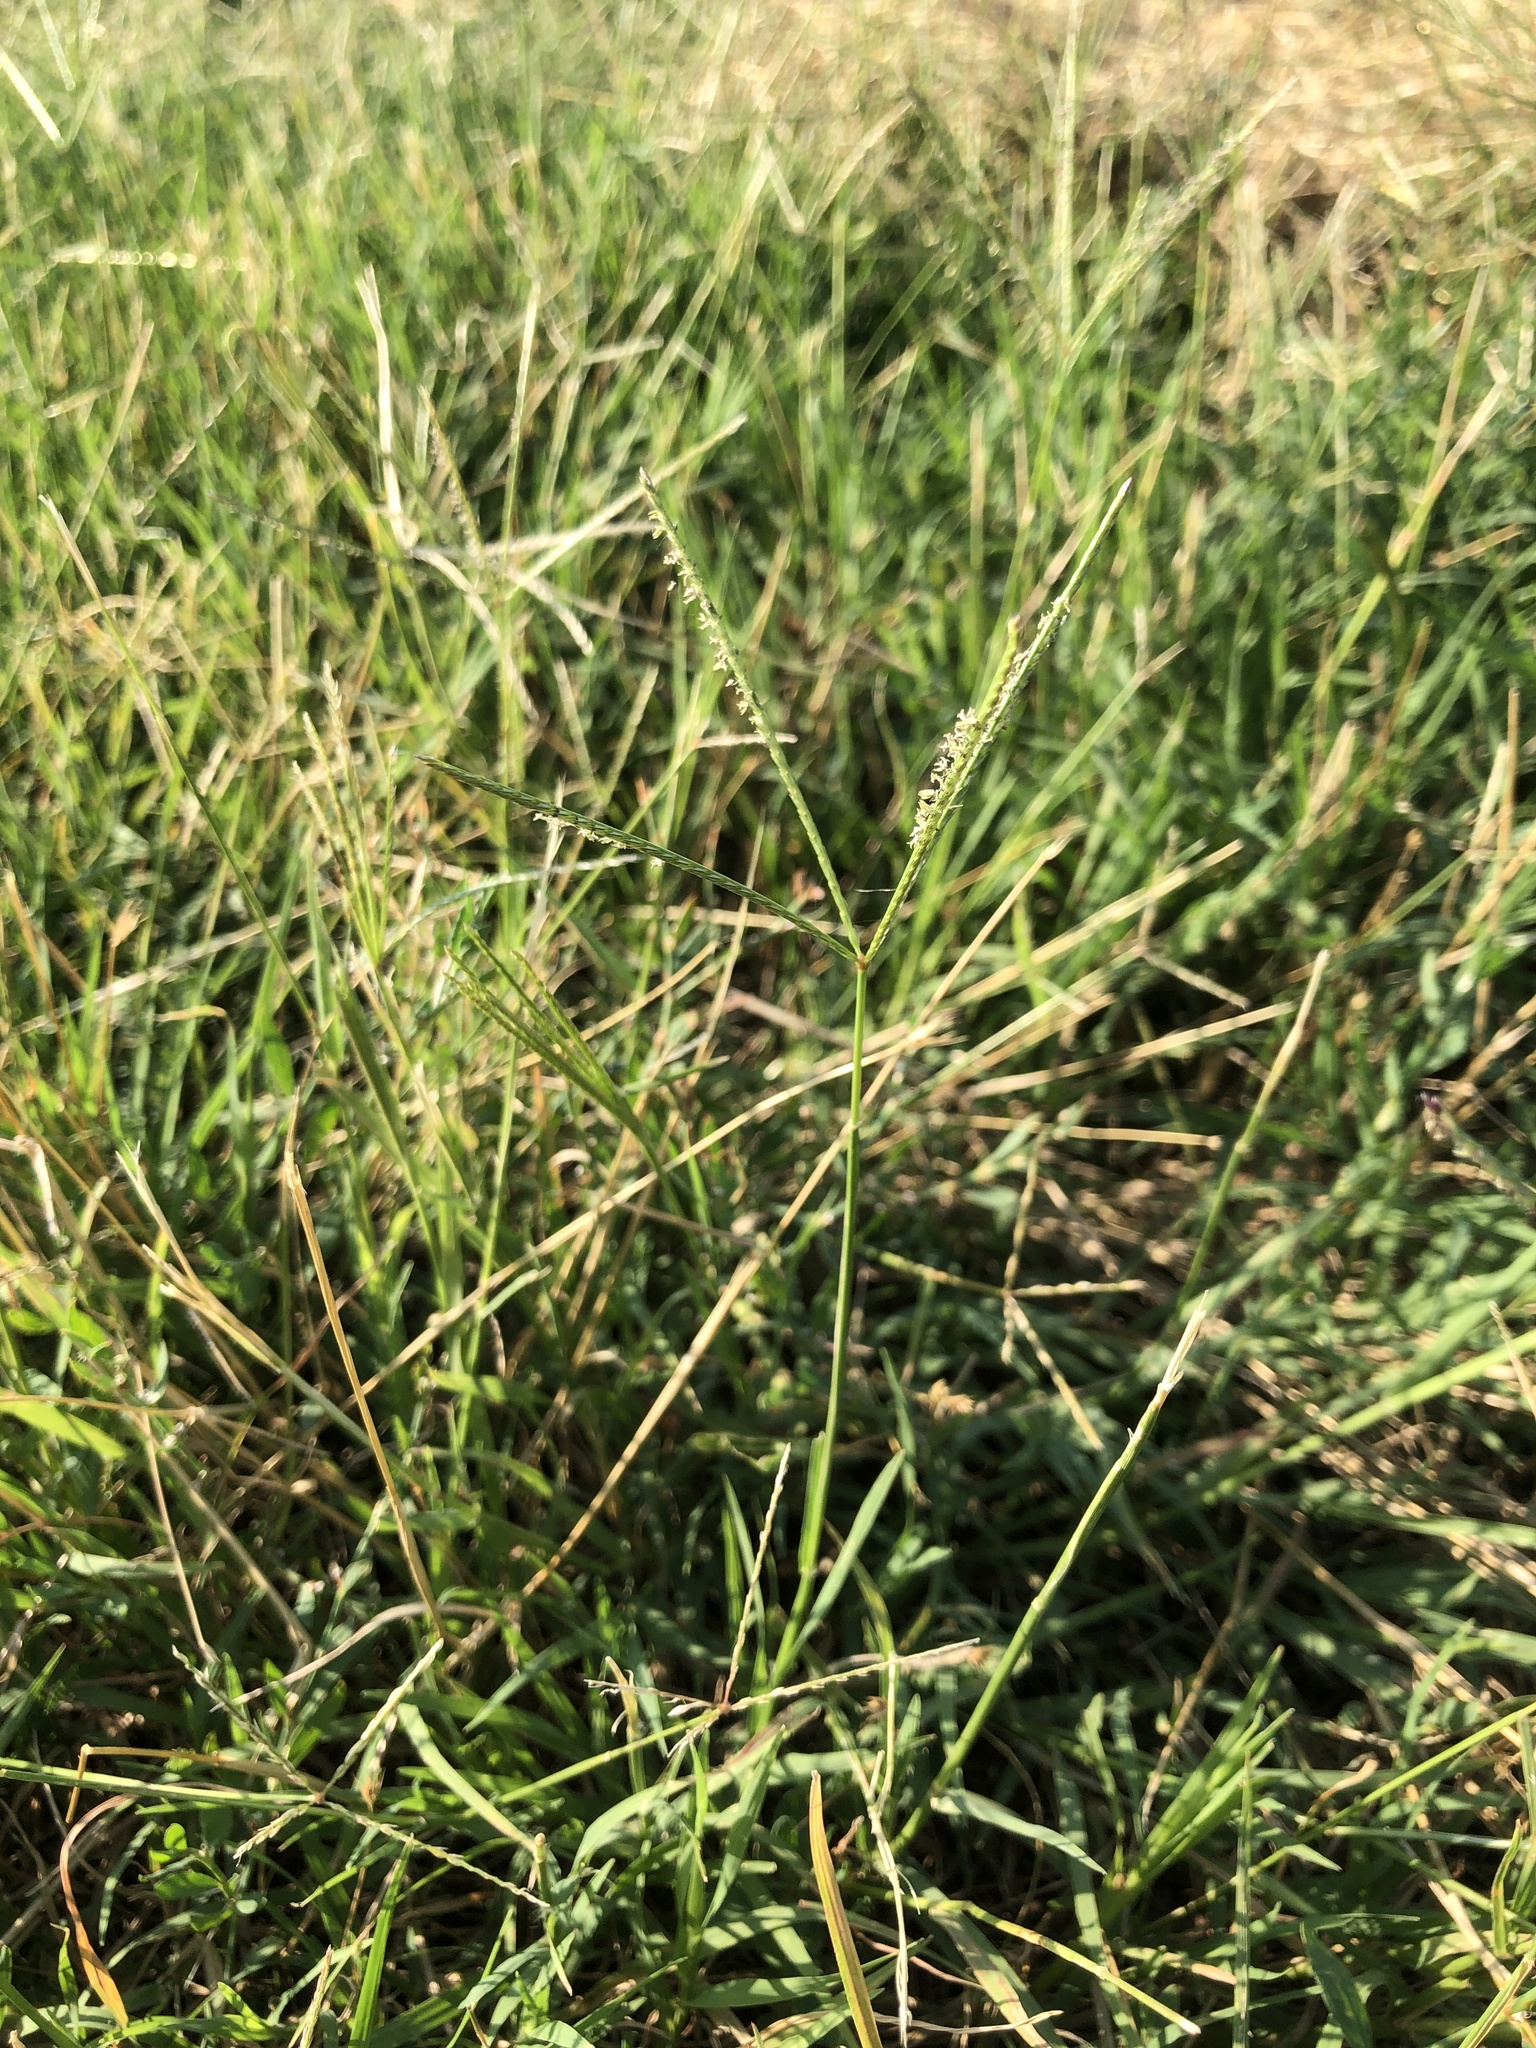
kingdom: Plantae
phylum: Tracheophyta
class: Liliopsida
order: Poales
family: Poaceae
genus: Cynodon
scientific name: Cynodon dactylon
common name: Bermuda grass
